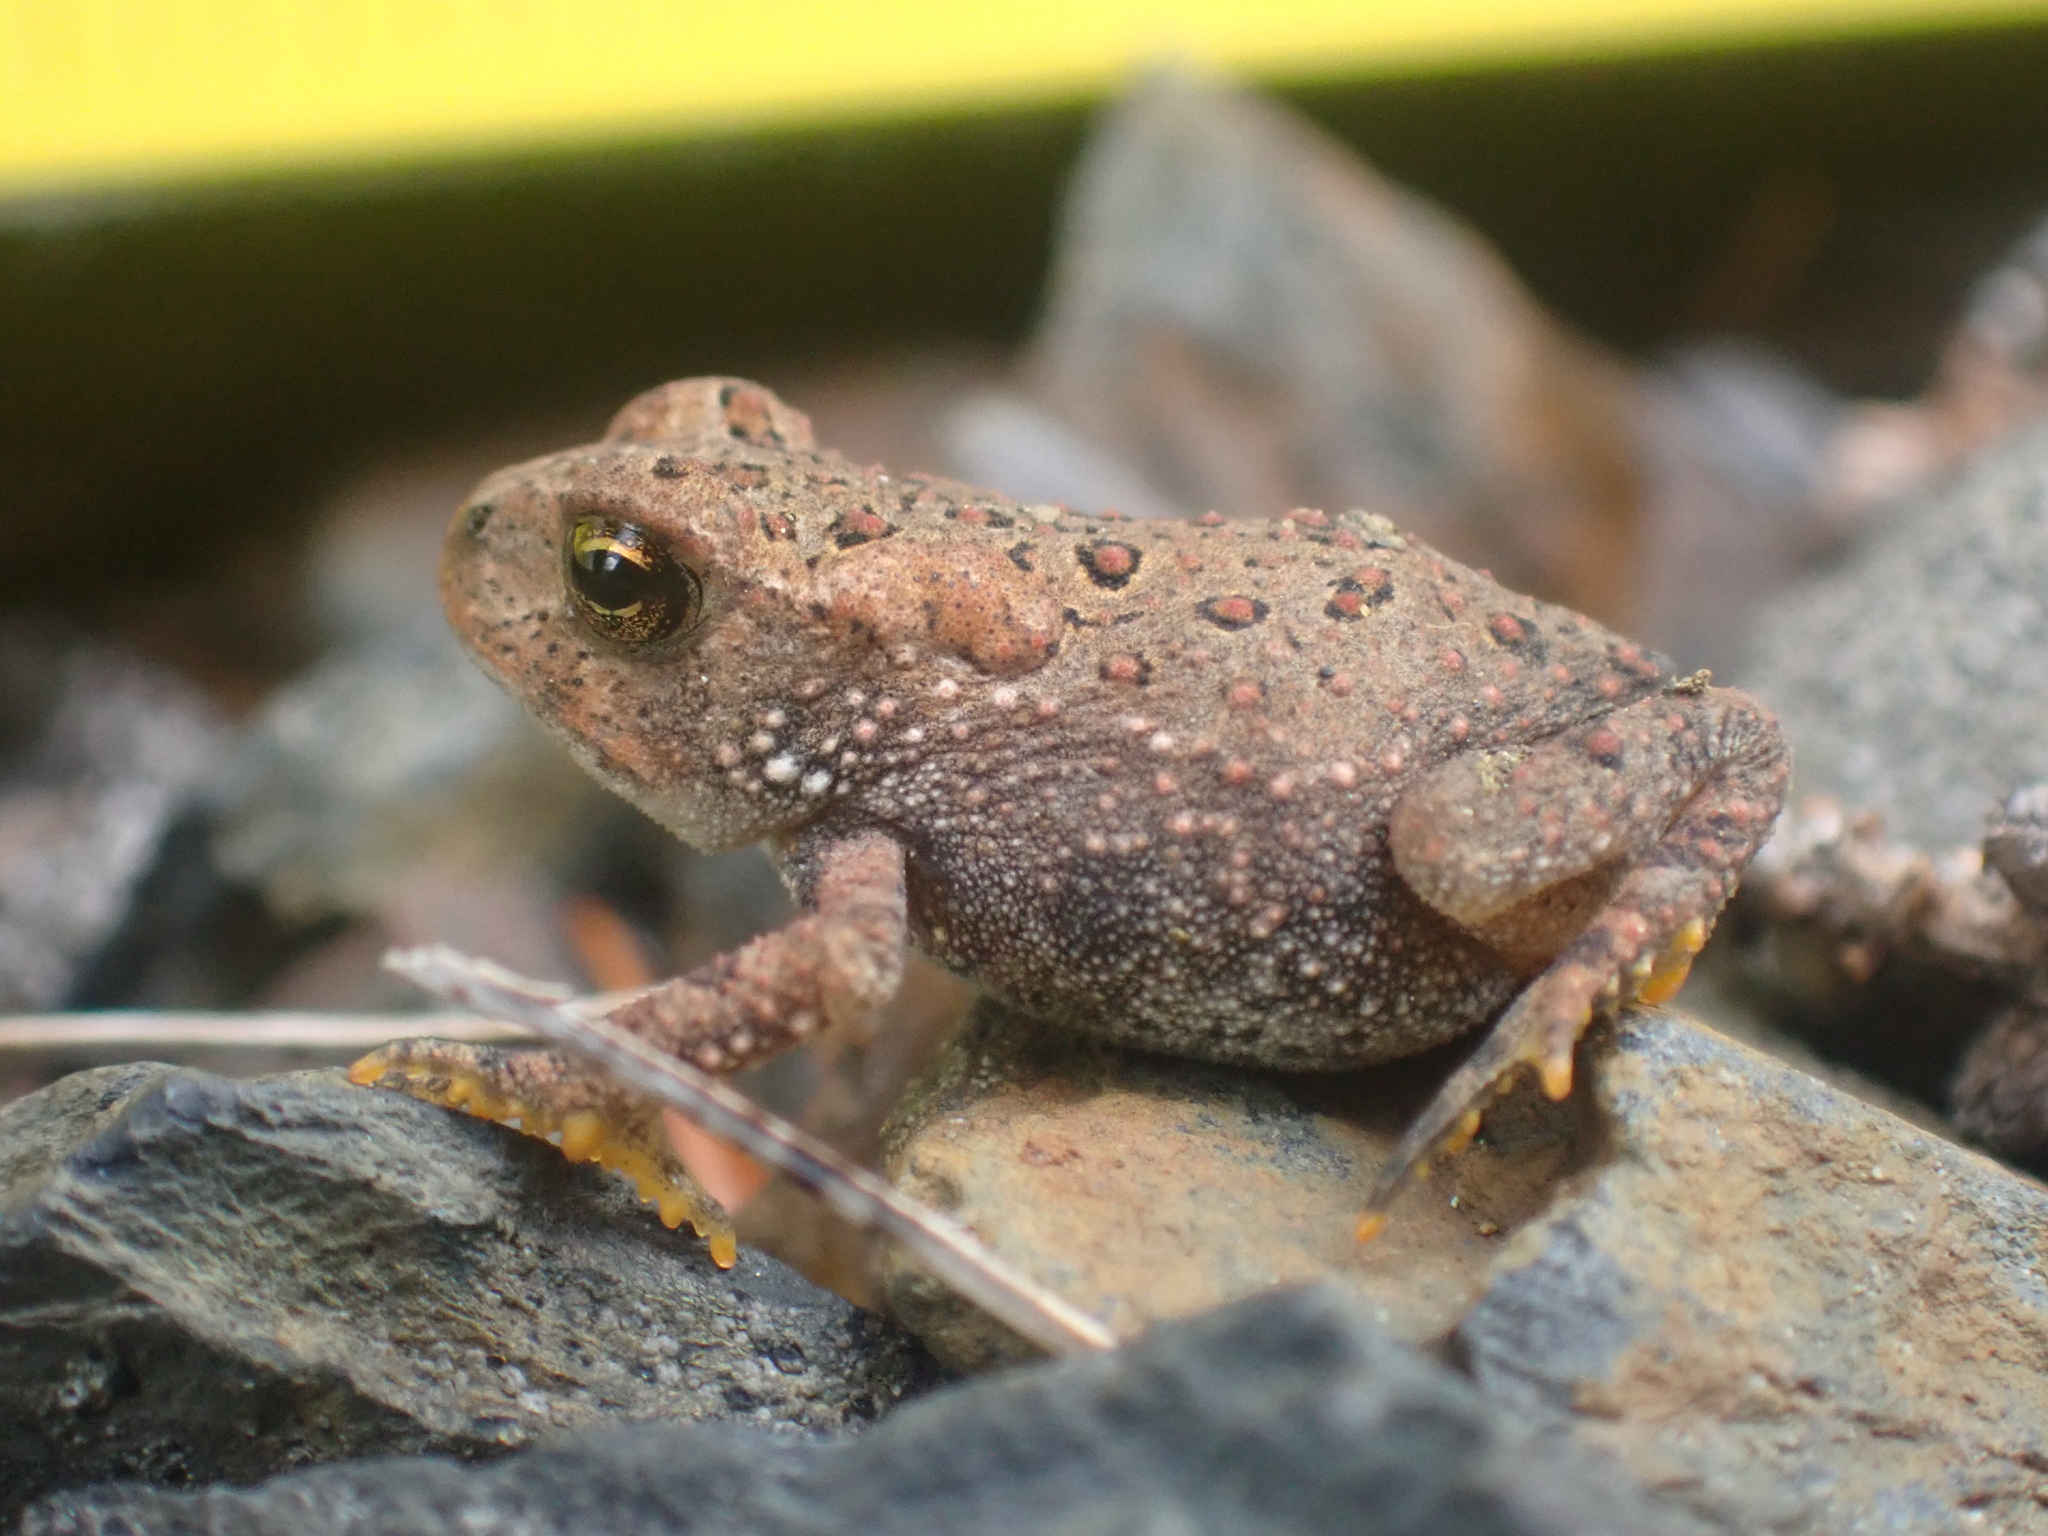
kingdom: Animalia
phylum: Chordata
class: Amphibia
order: Anura
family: Bufonidae
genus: Anaxyrus
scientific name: Anaxyrus americanus
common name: American toad
